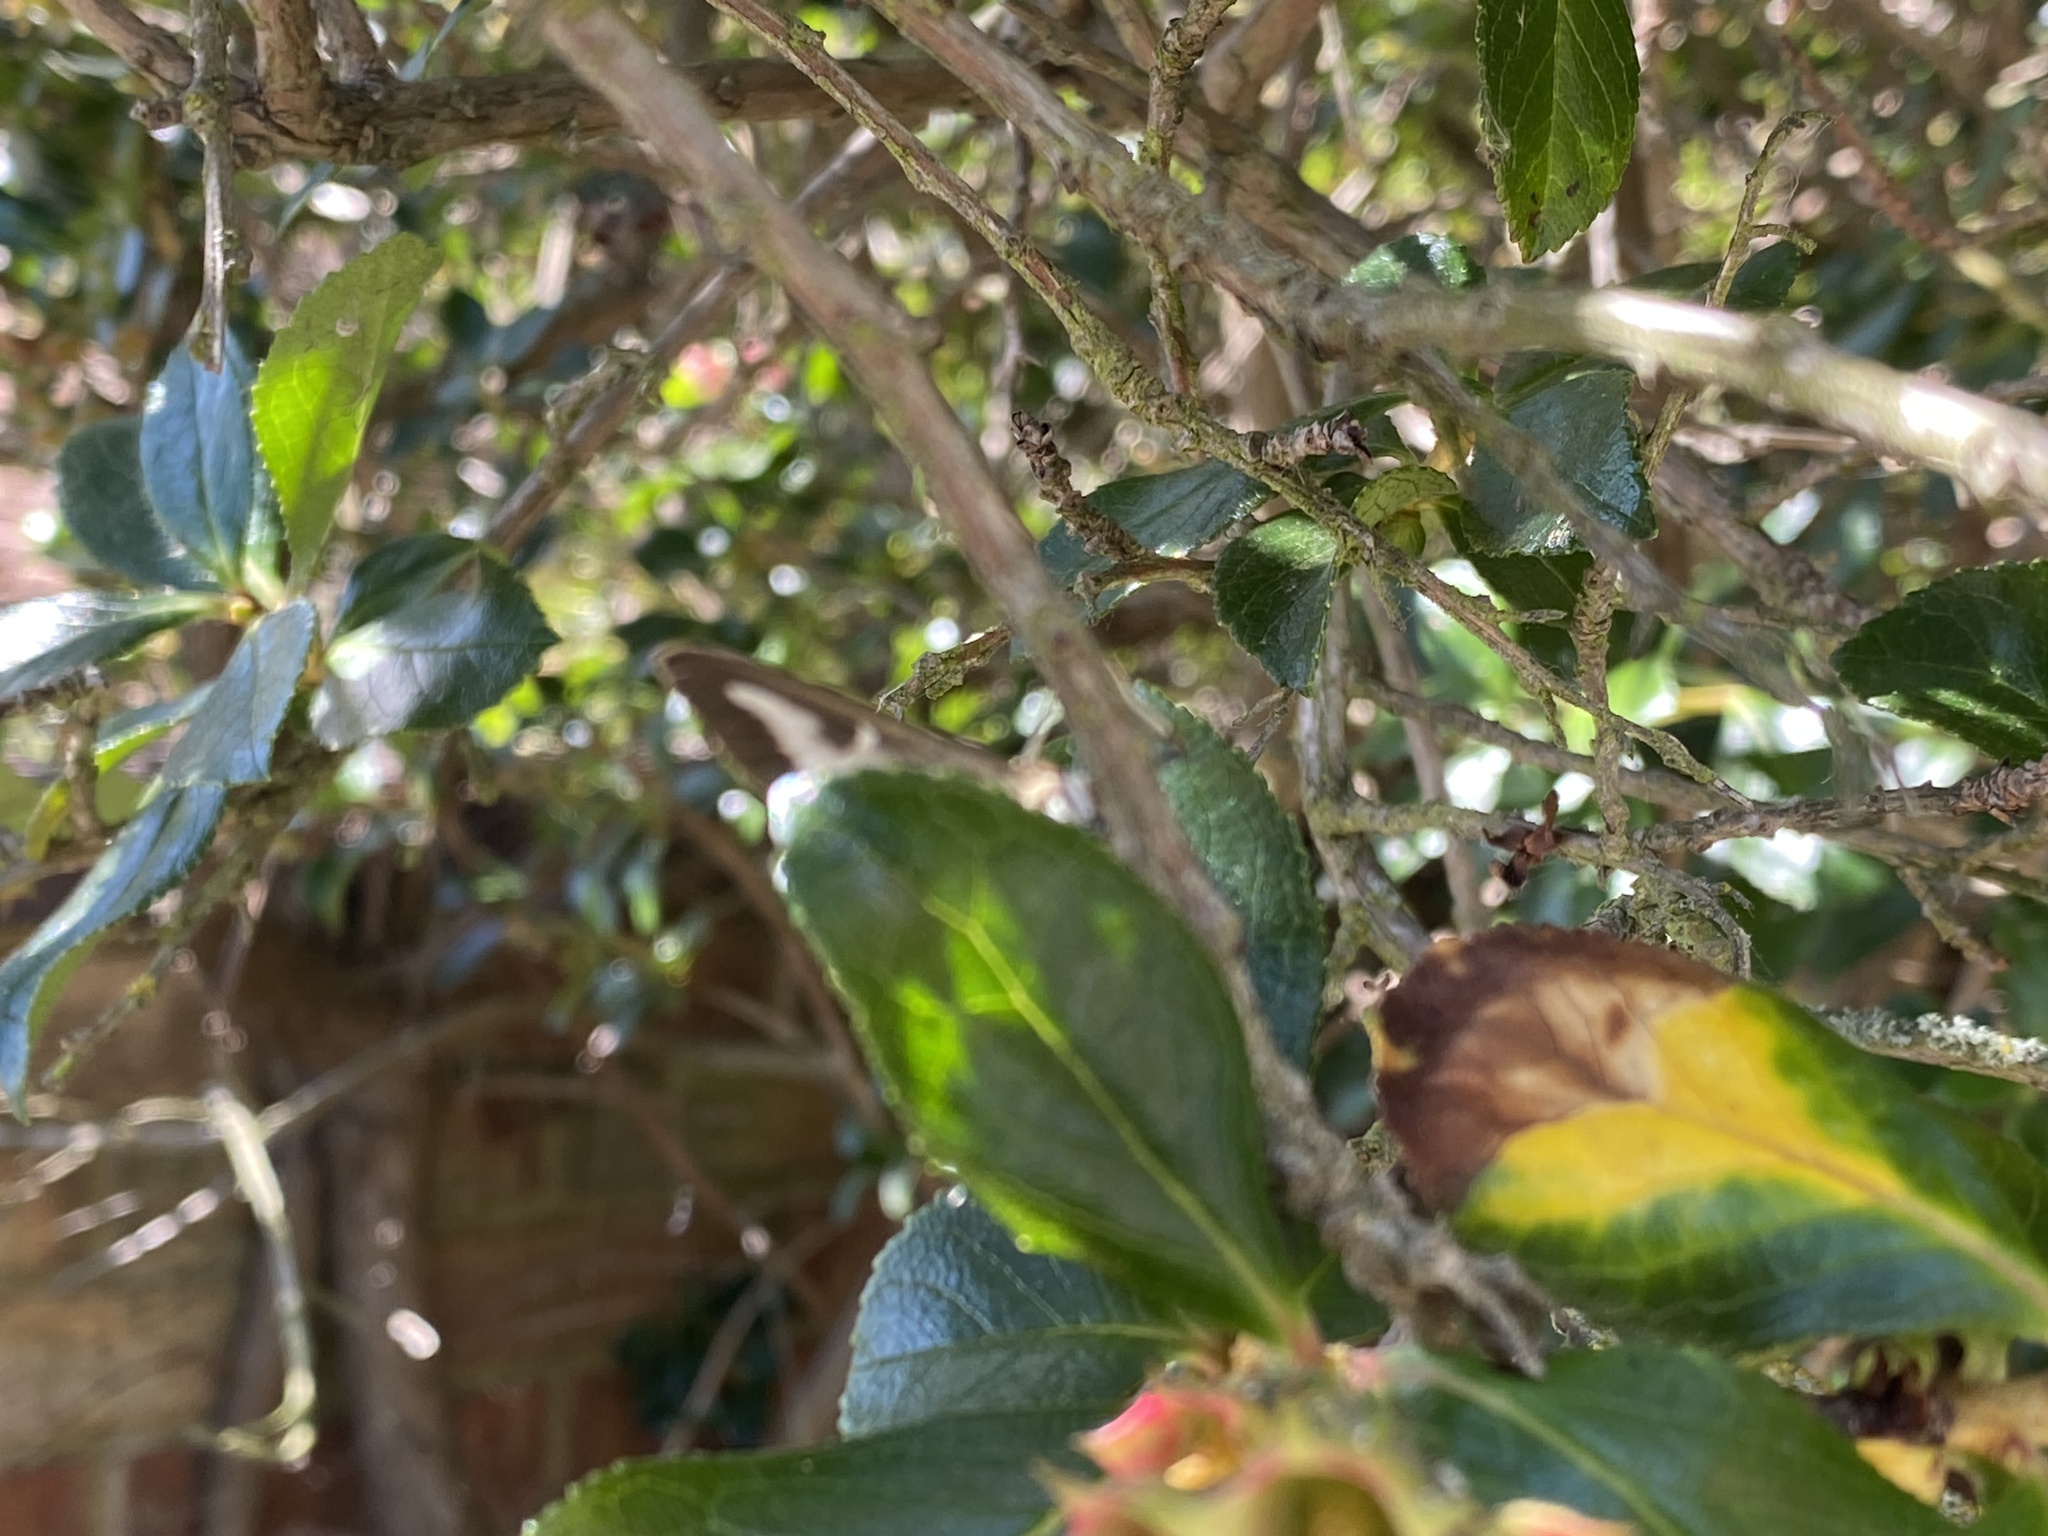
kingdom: Animalia
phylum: Arthropoda
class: Insecta
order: Lepidoptera
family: Crambidae
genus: Cydalima
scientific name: Cydalima perspectalis
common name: Box tree moth
